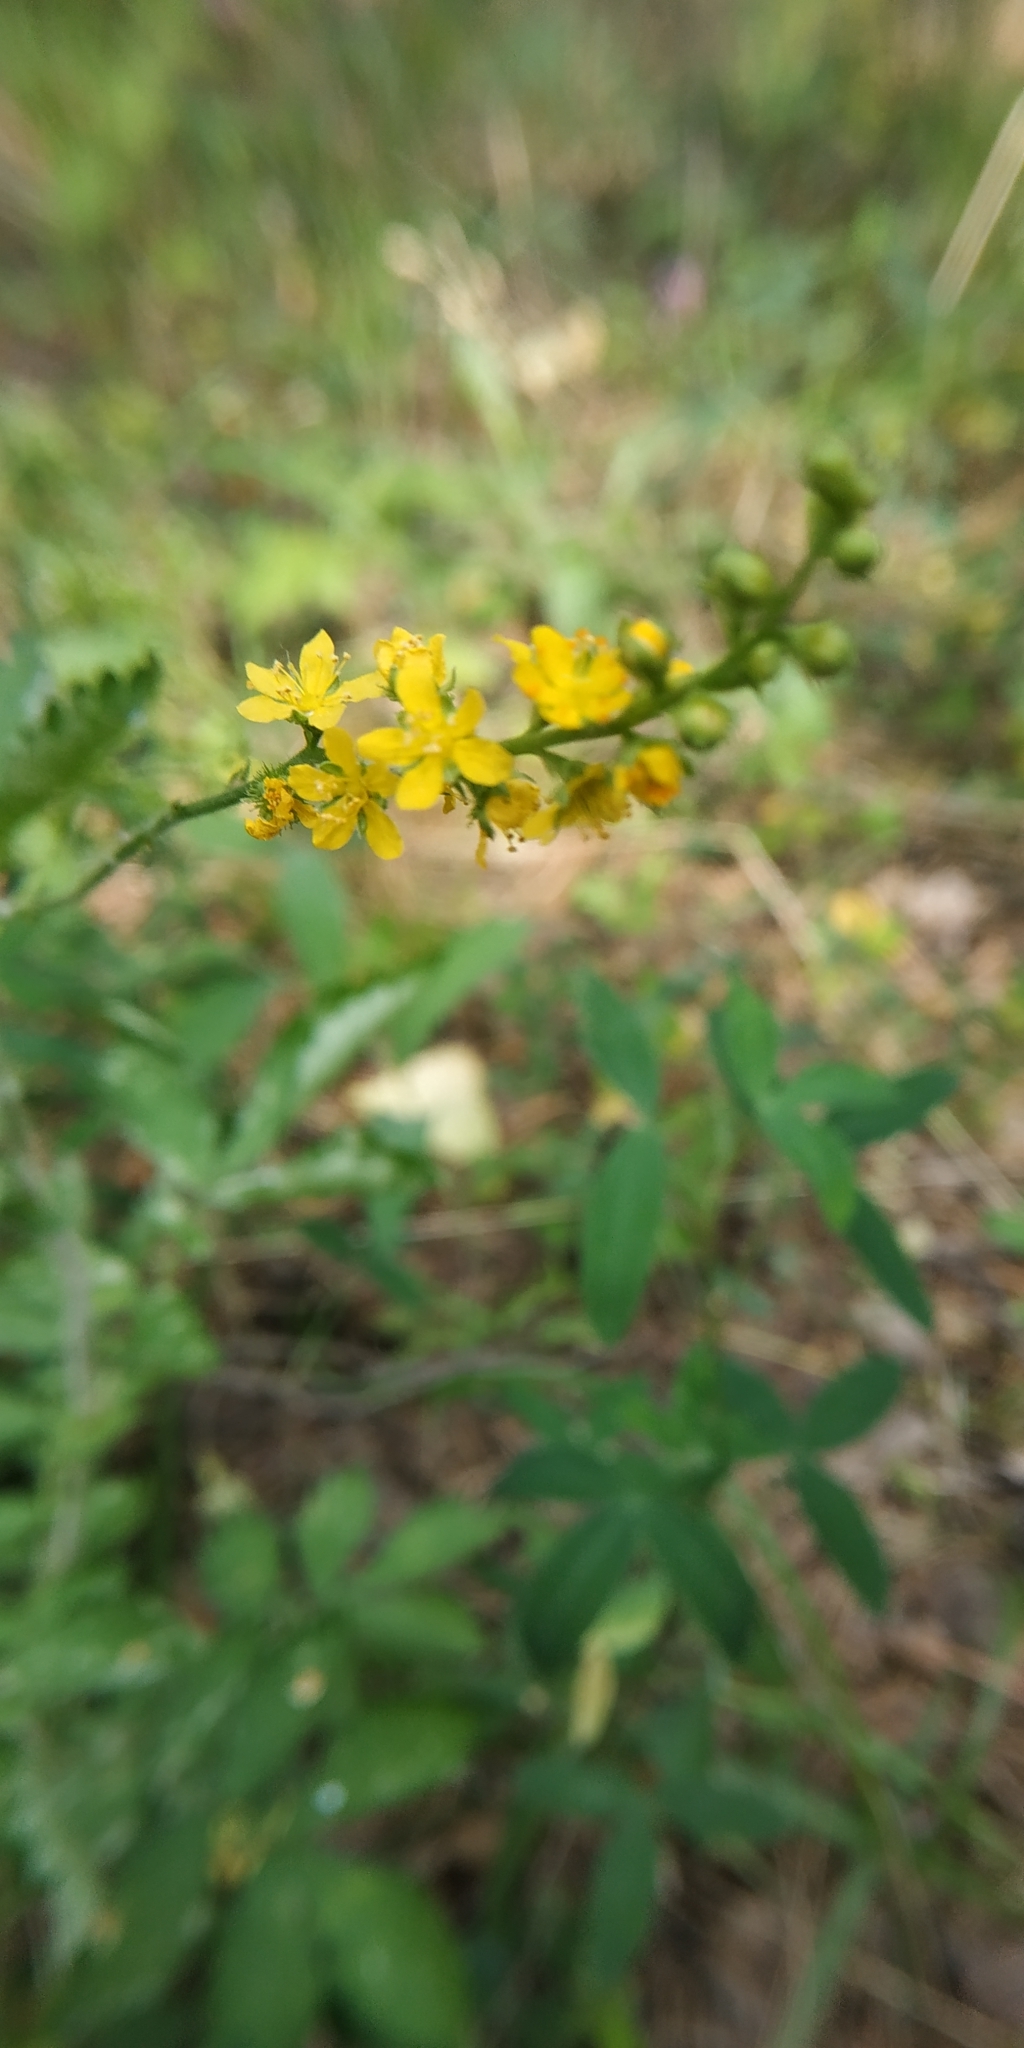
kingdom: Plantae
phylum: Tracheophyta
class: Magnoliopsida
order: Rosales
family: Rosaceae
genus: Agrimonia
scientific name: Agrimonia pilosa
